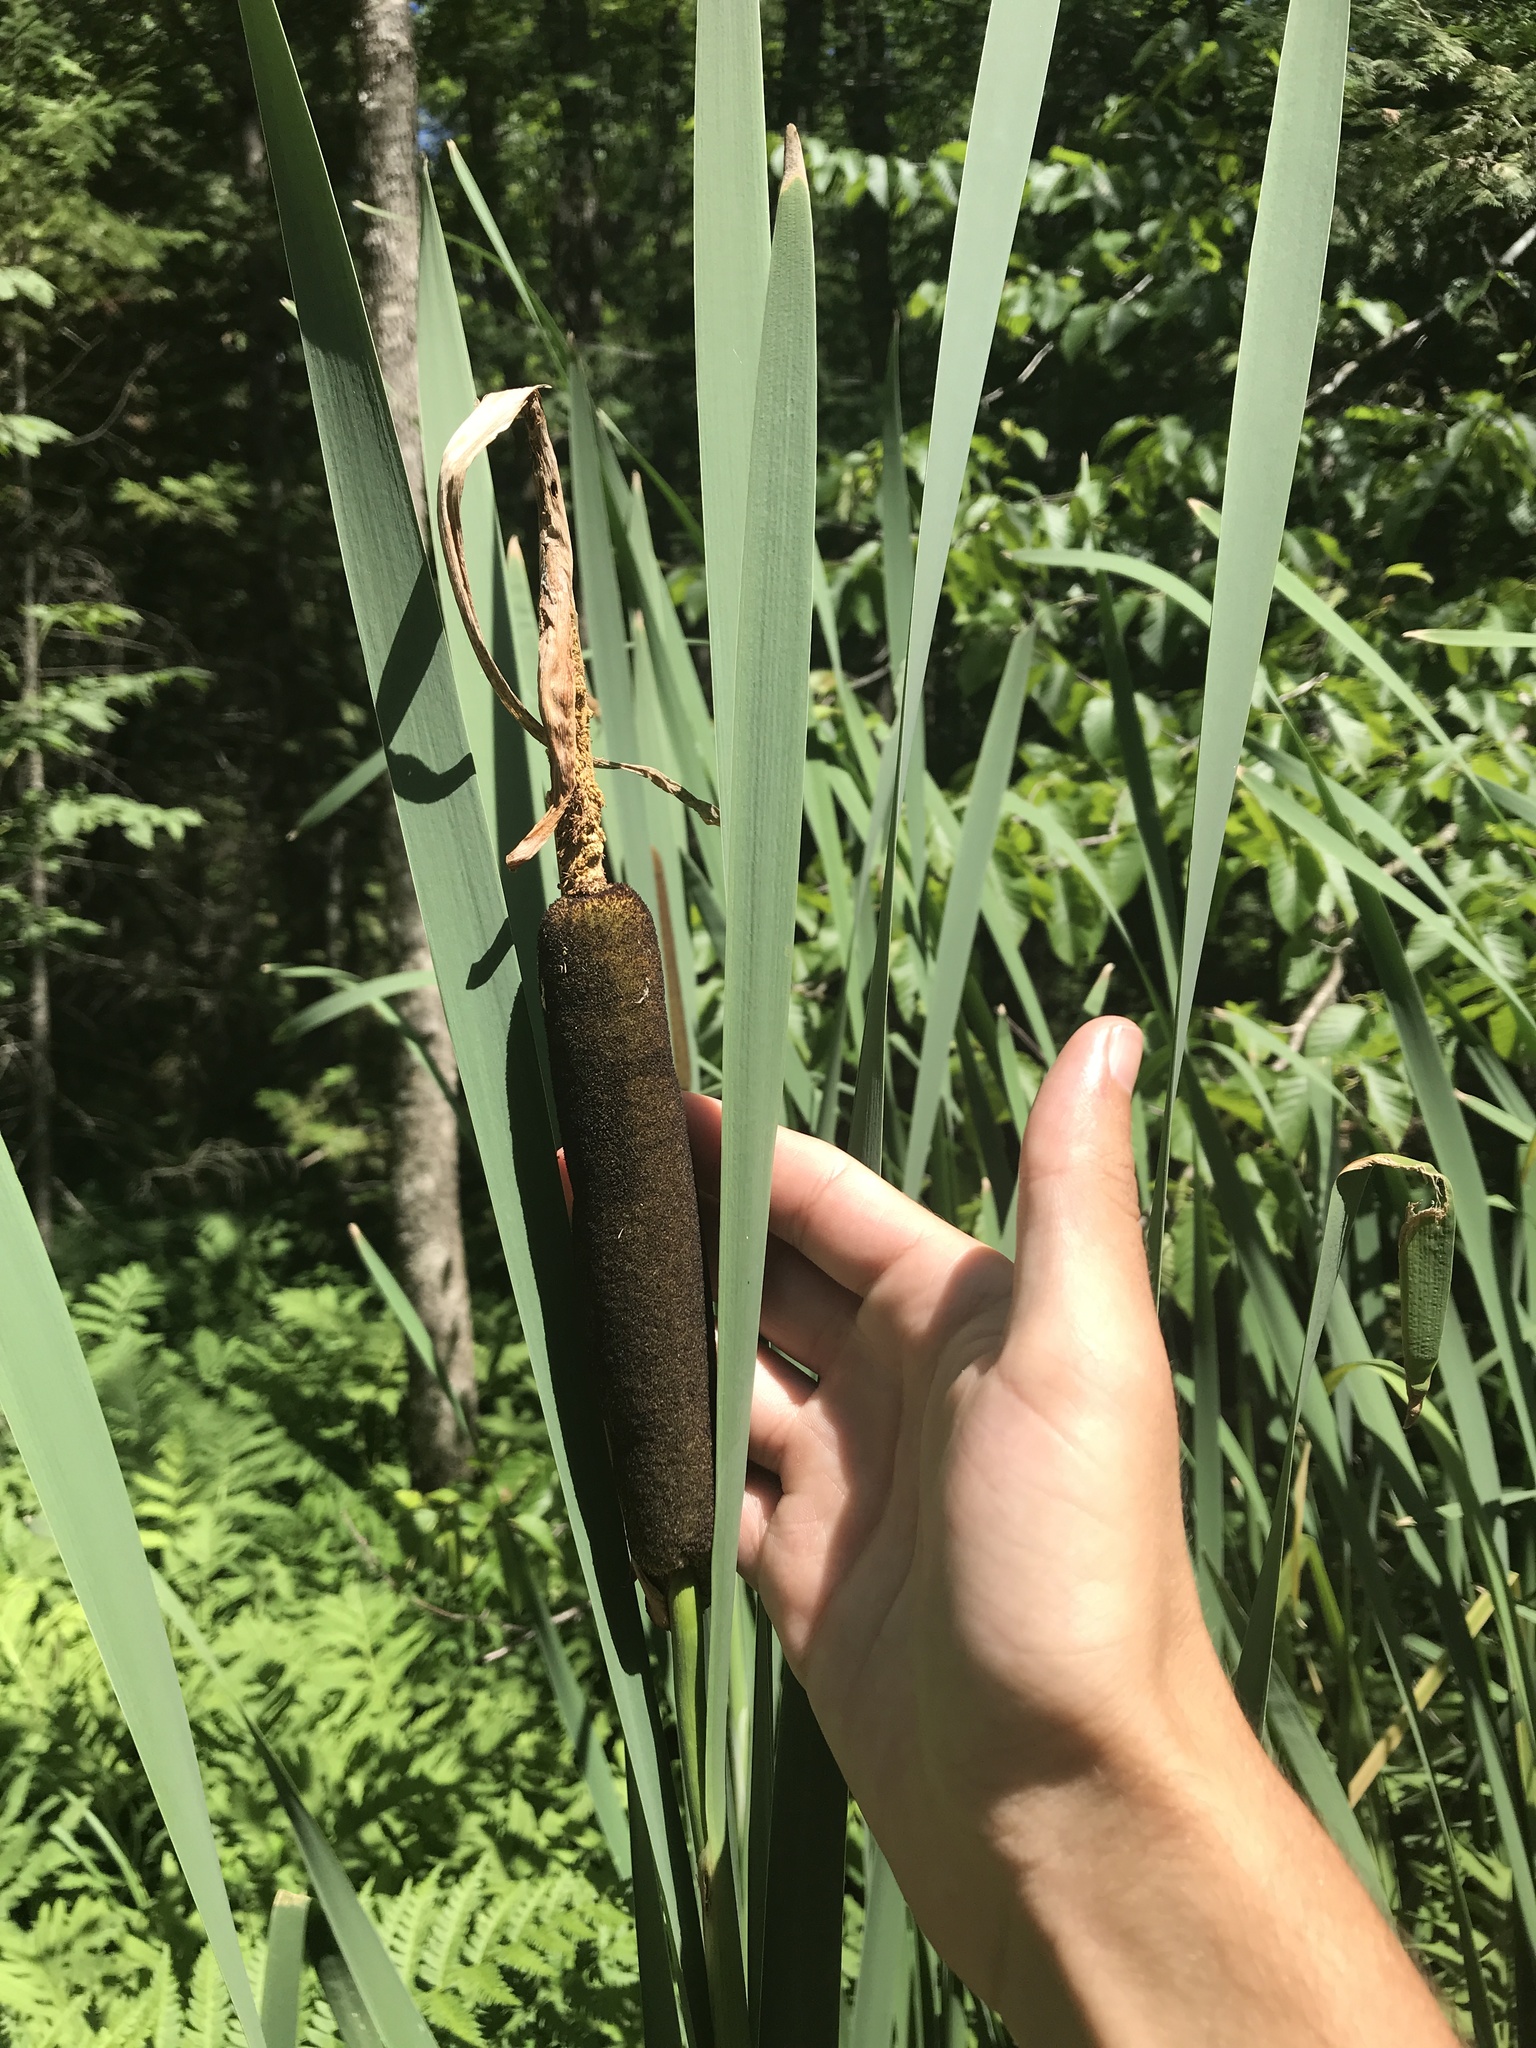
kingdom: Plantae
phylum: Tracheophyta
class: Liliopsida
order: Poales
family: Typhaceae
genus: Typha
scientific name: Typha latifolia
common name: Broadleaf cattail
